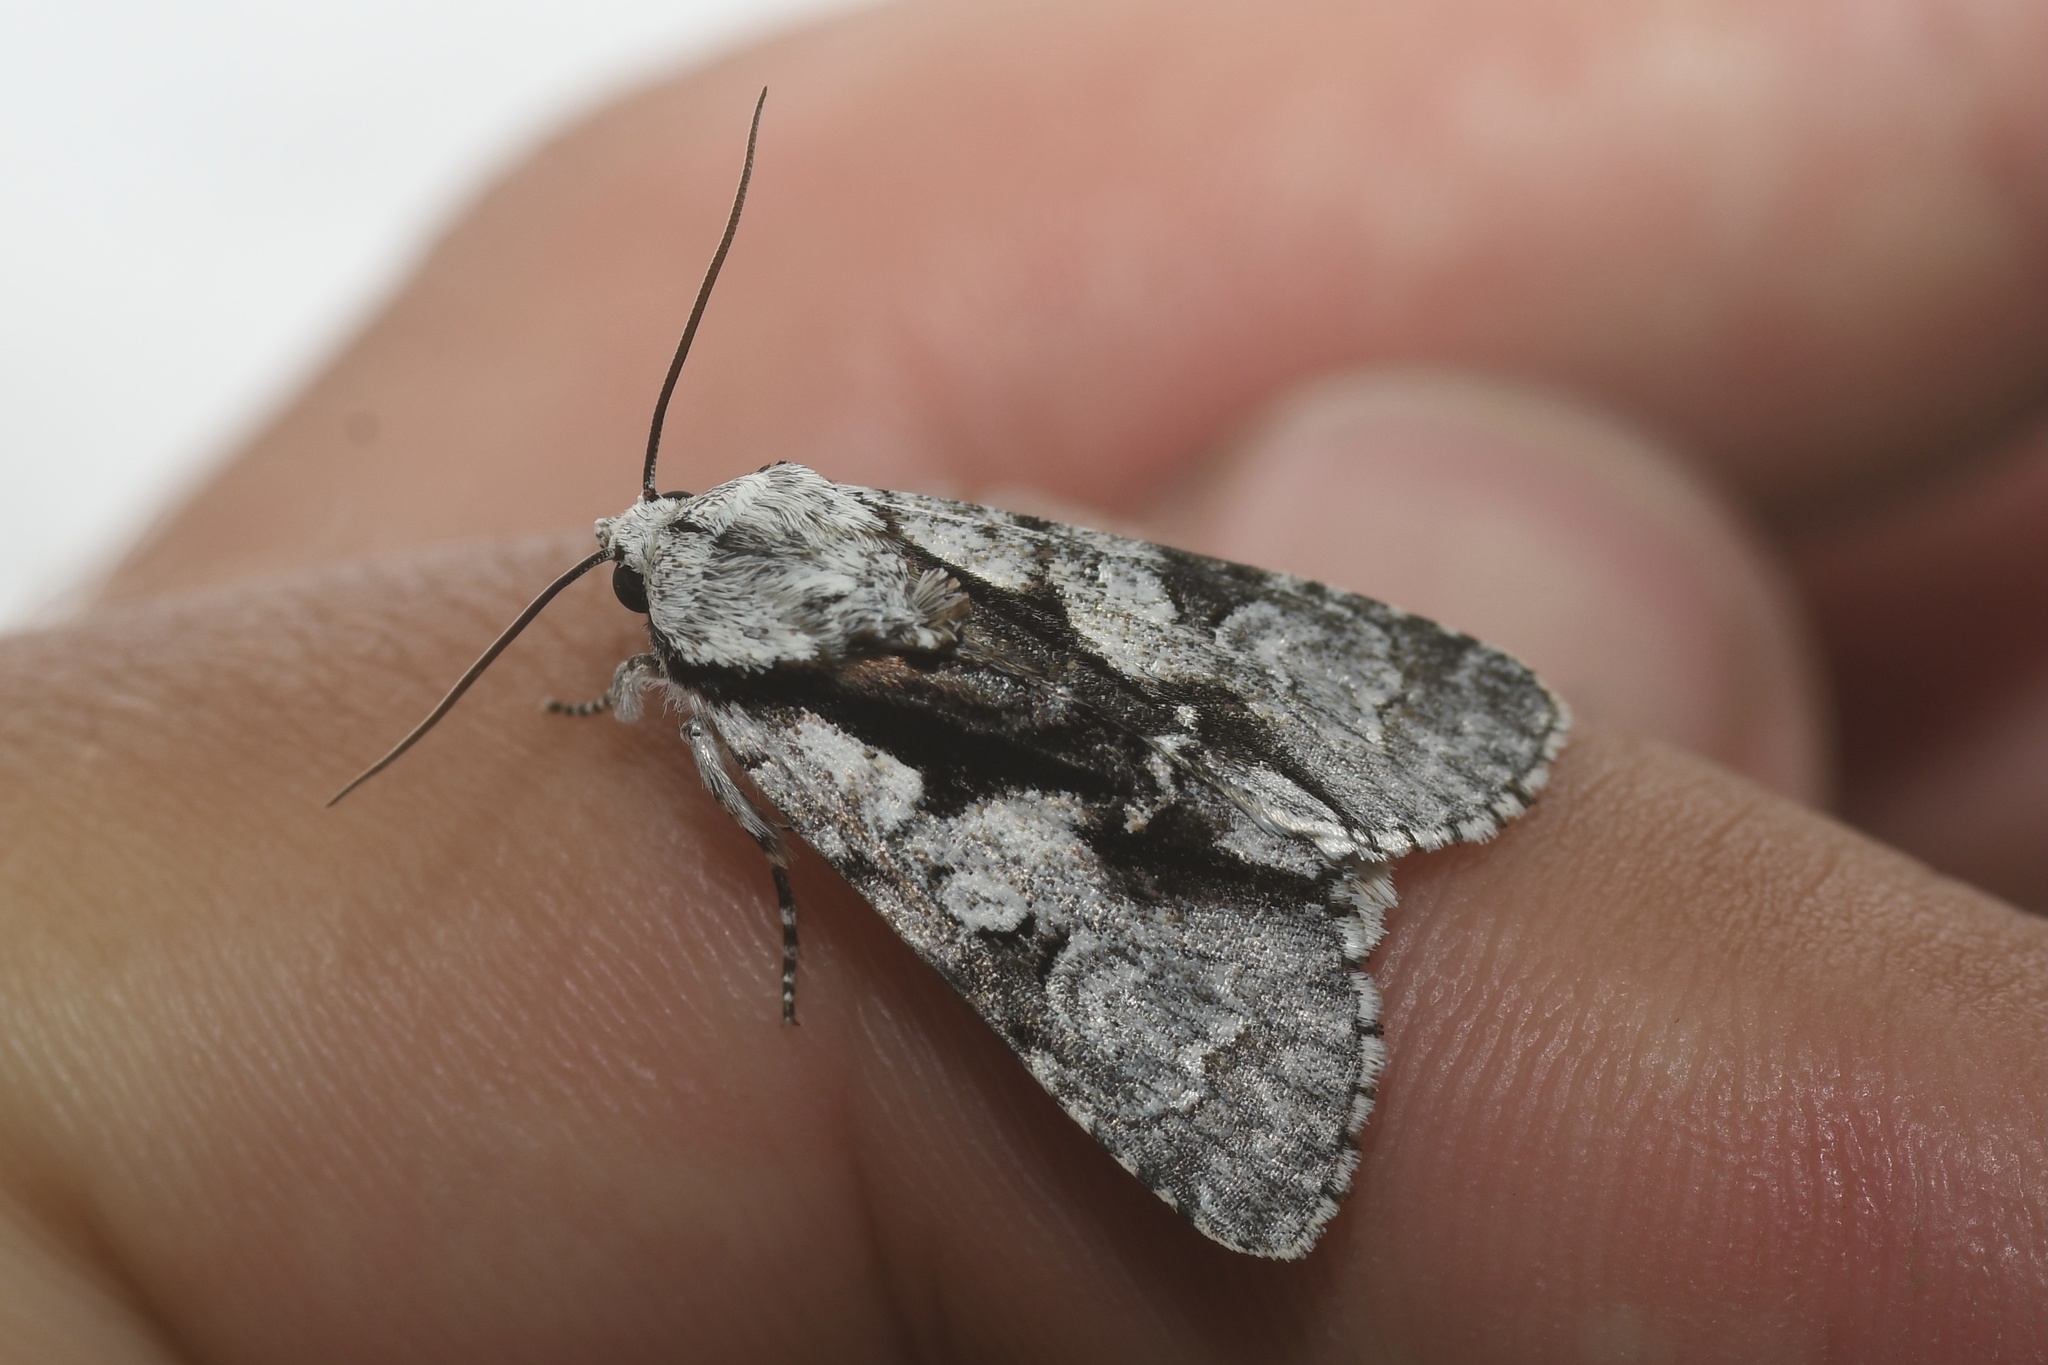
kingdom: Animalia
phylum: Arthropoda
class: Insecta
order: Lepidoptera
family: Noctuidae
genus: Acronicta
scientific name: Acronicta funeralis
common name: Funerary dagger
